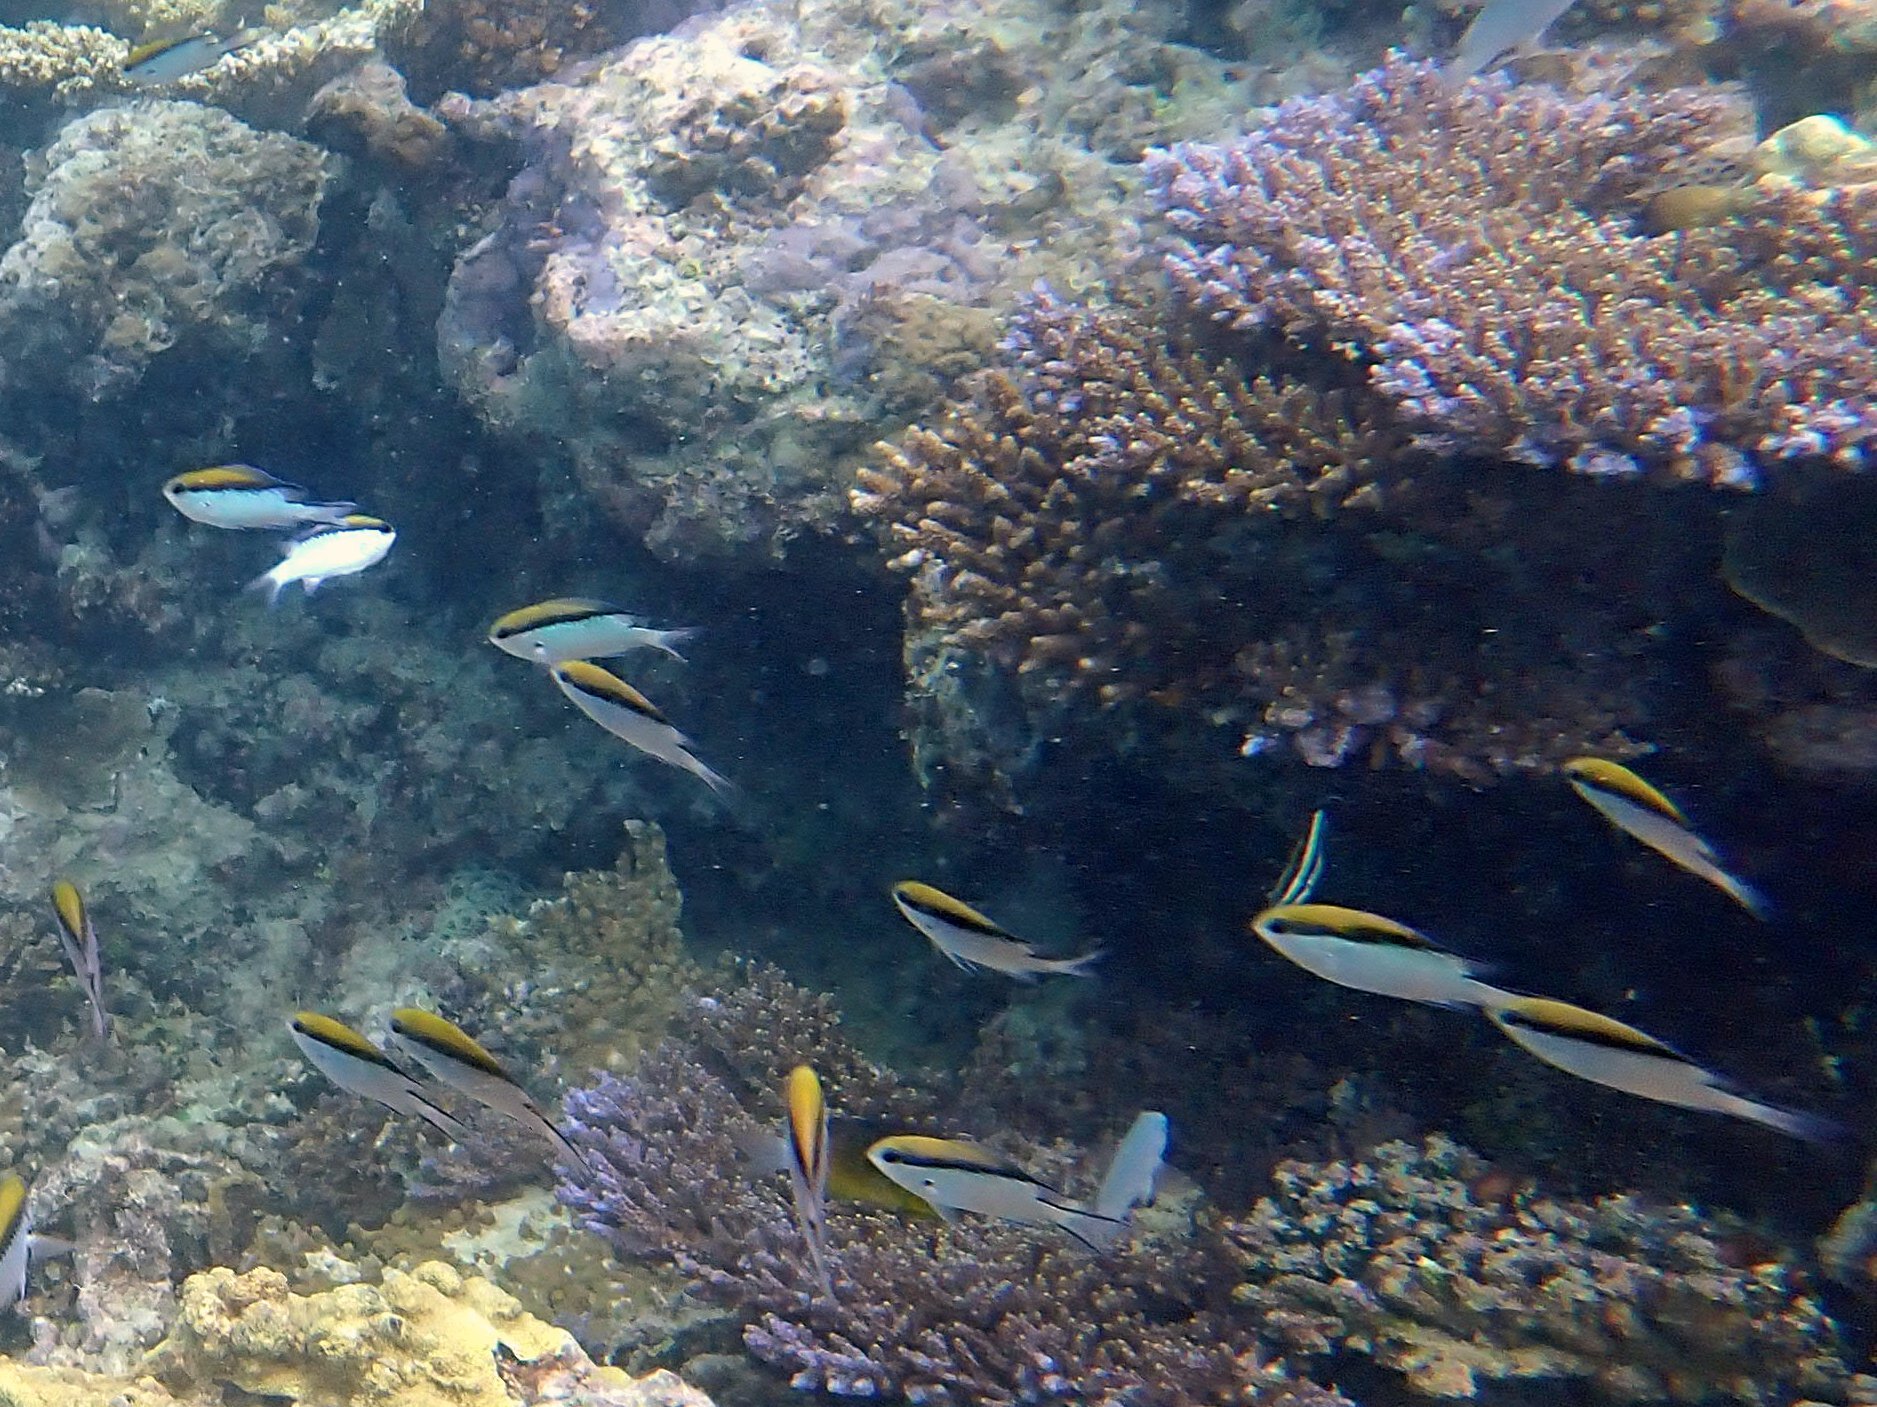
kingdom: Animalia
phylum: Chordata
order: Perciformes
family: Pomacentridae
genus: Chromis
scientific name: Chromis nitida
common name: Barrier reef chromis
